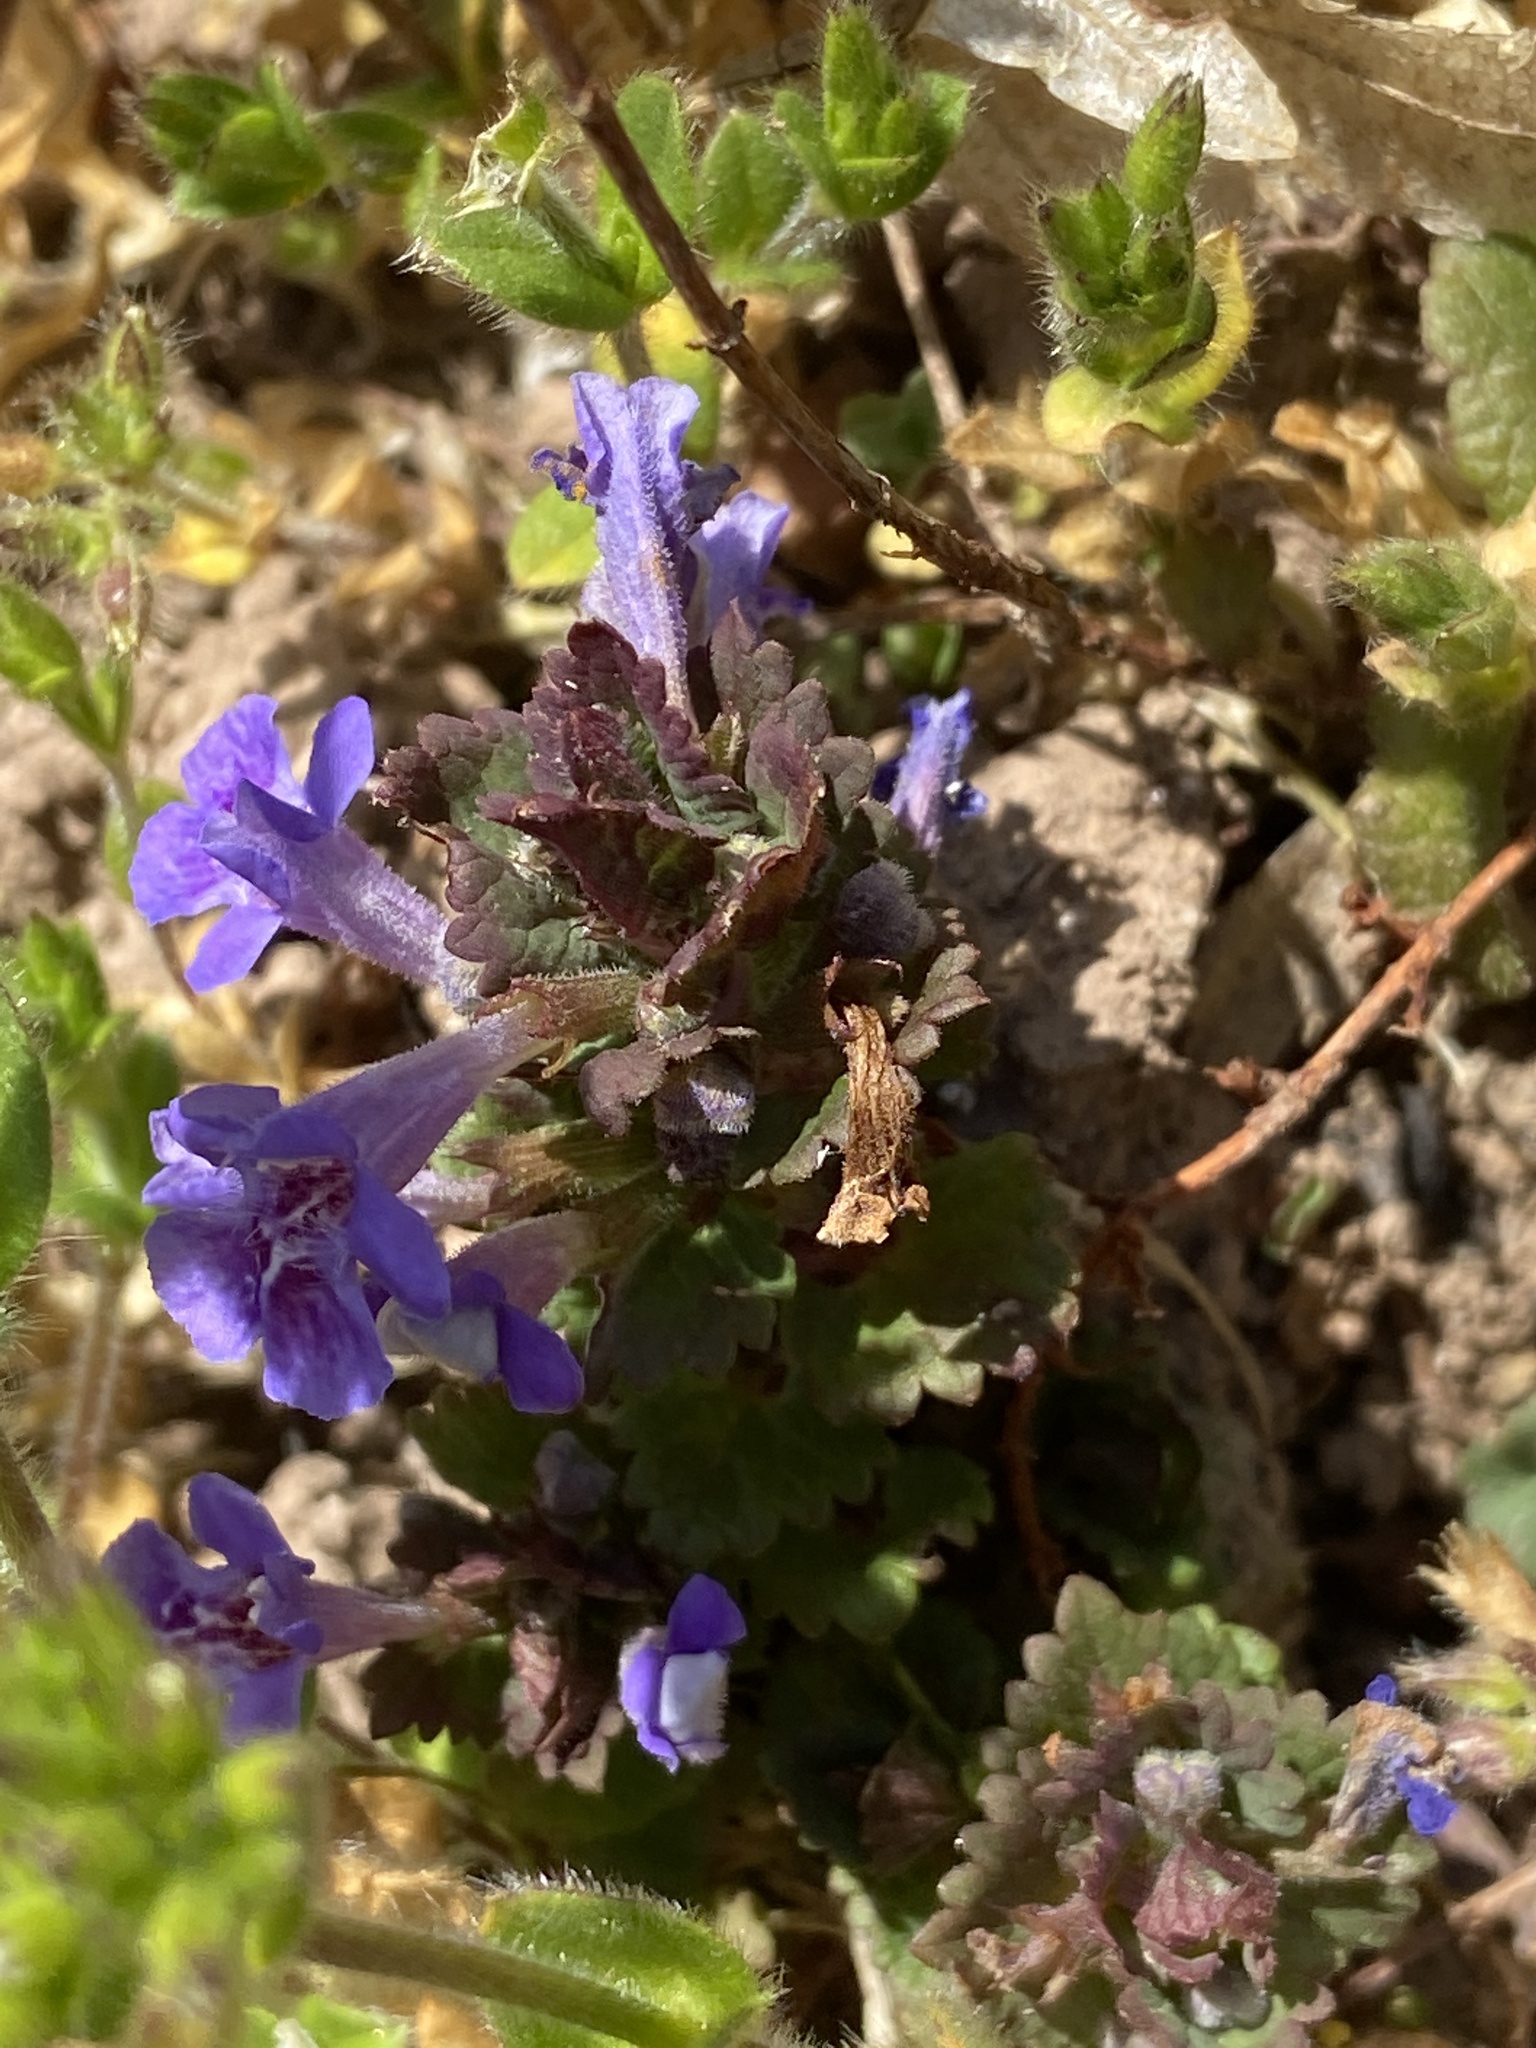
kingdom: Plantae
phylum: Tracheophyta
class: Magnoliopsida
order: Lamiales
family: Lamiaceae
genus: Glechoma
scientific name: Glechoma hederacea
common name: Ground ivy
